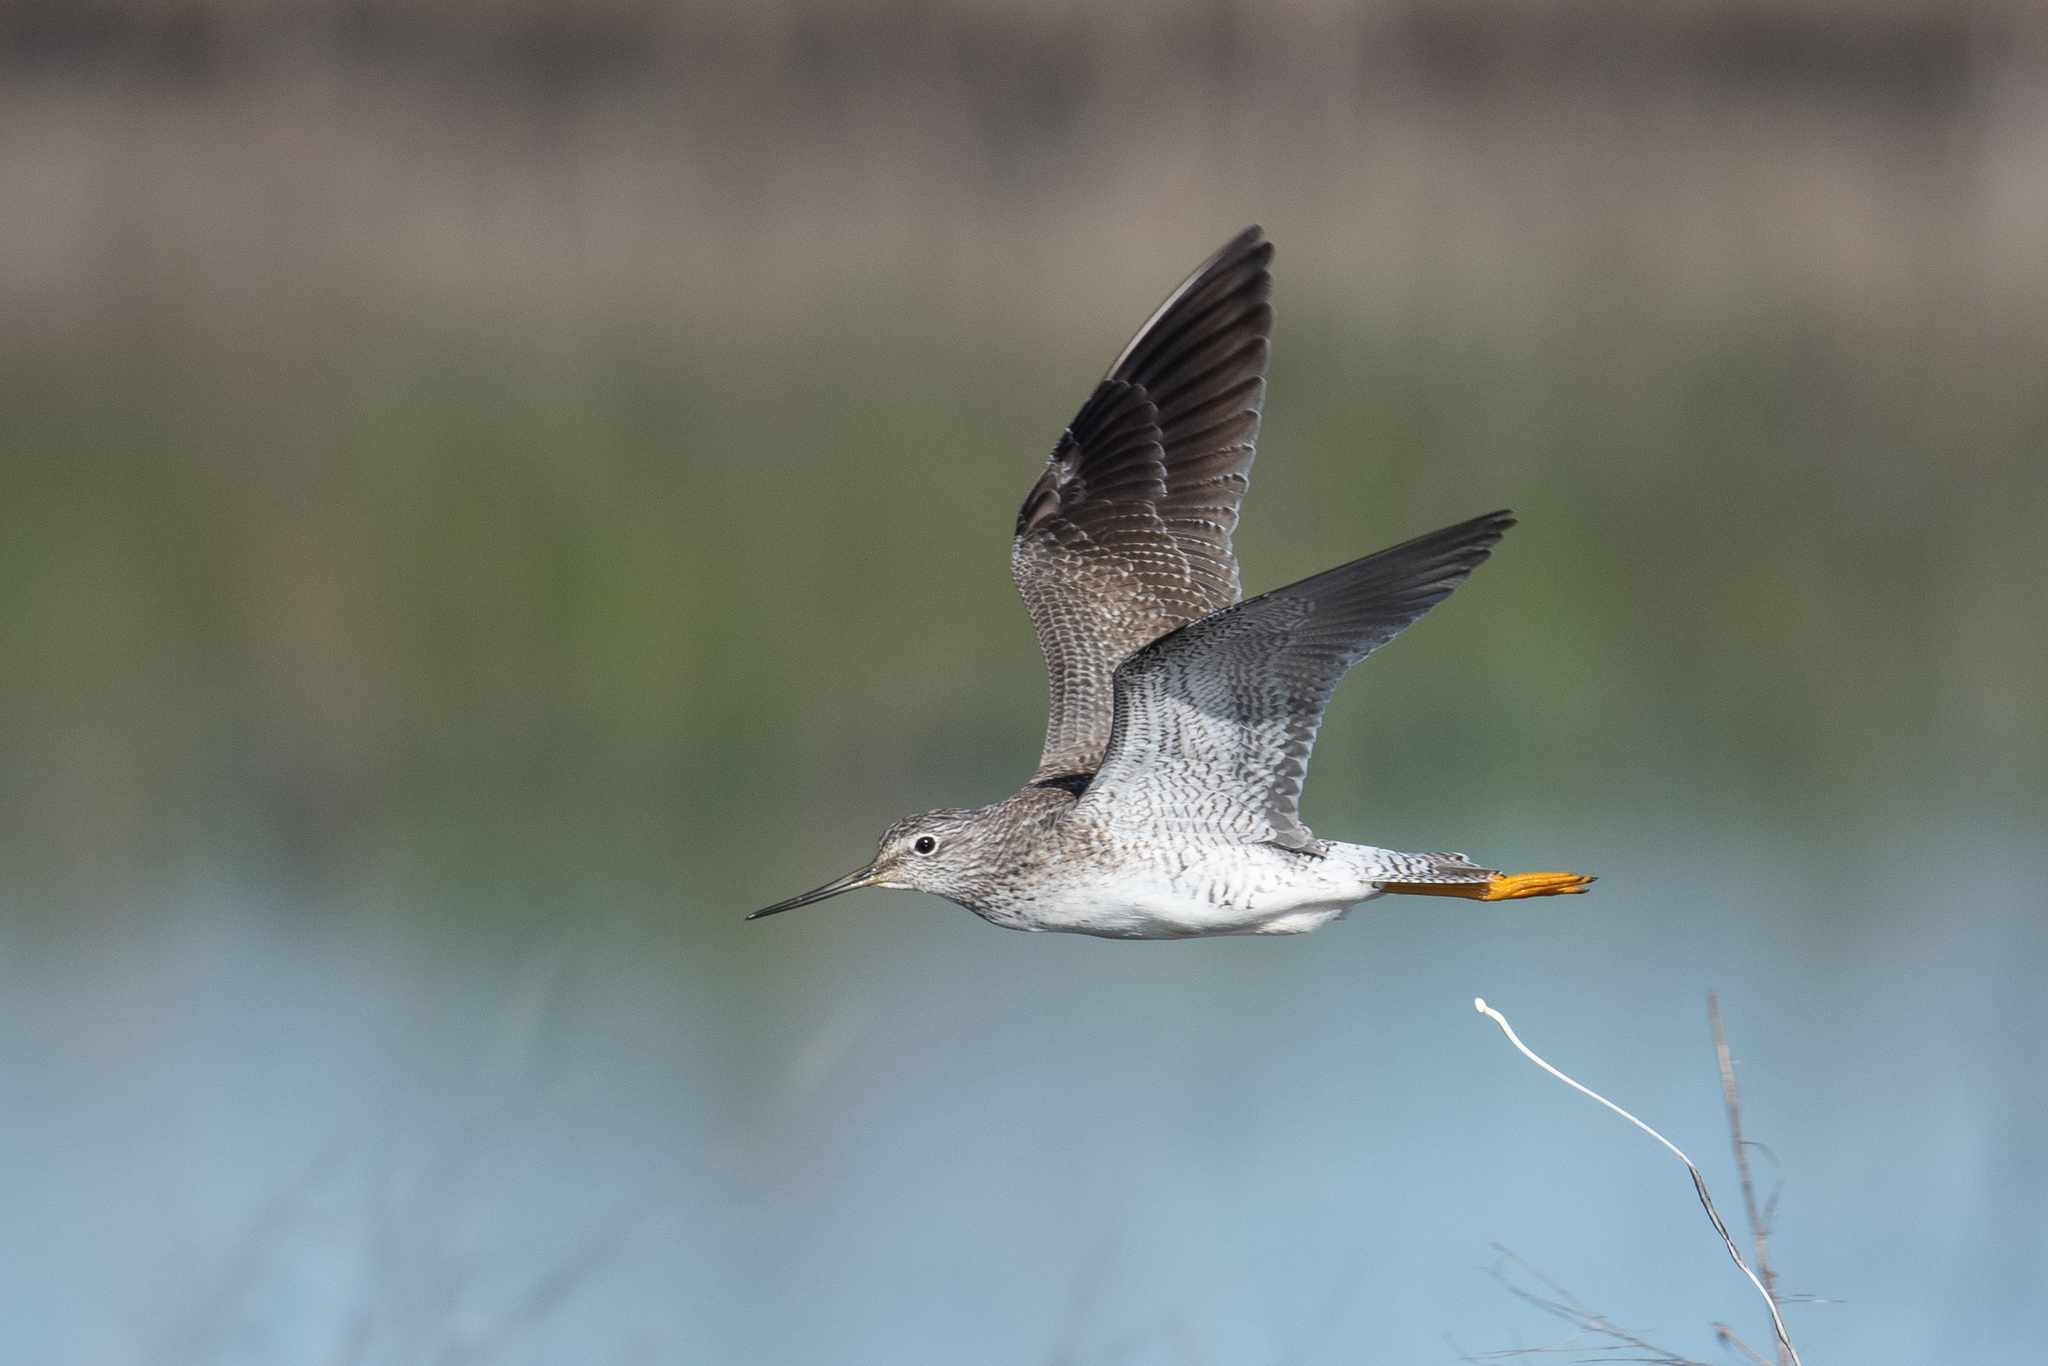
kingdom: Animalia
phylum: Chordata
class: Aves
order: Charadriiformes
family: Scolopacidae
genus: Tringa
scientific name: Tringa melanoleuca
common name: Greater yellowlegs
